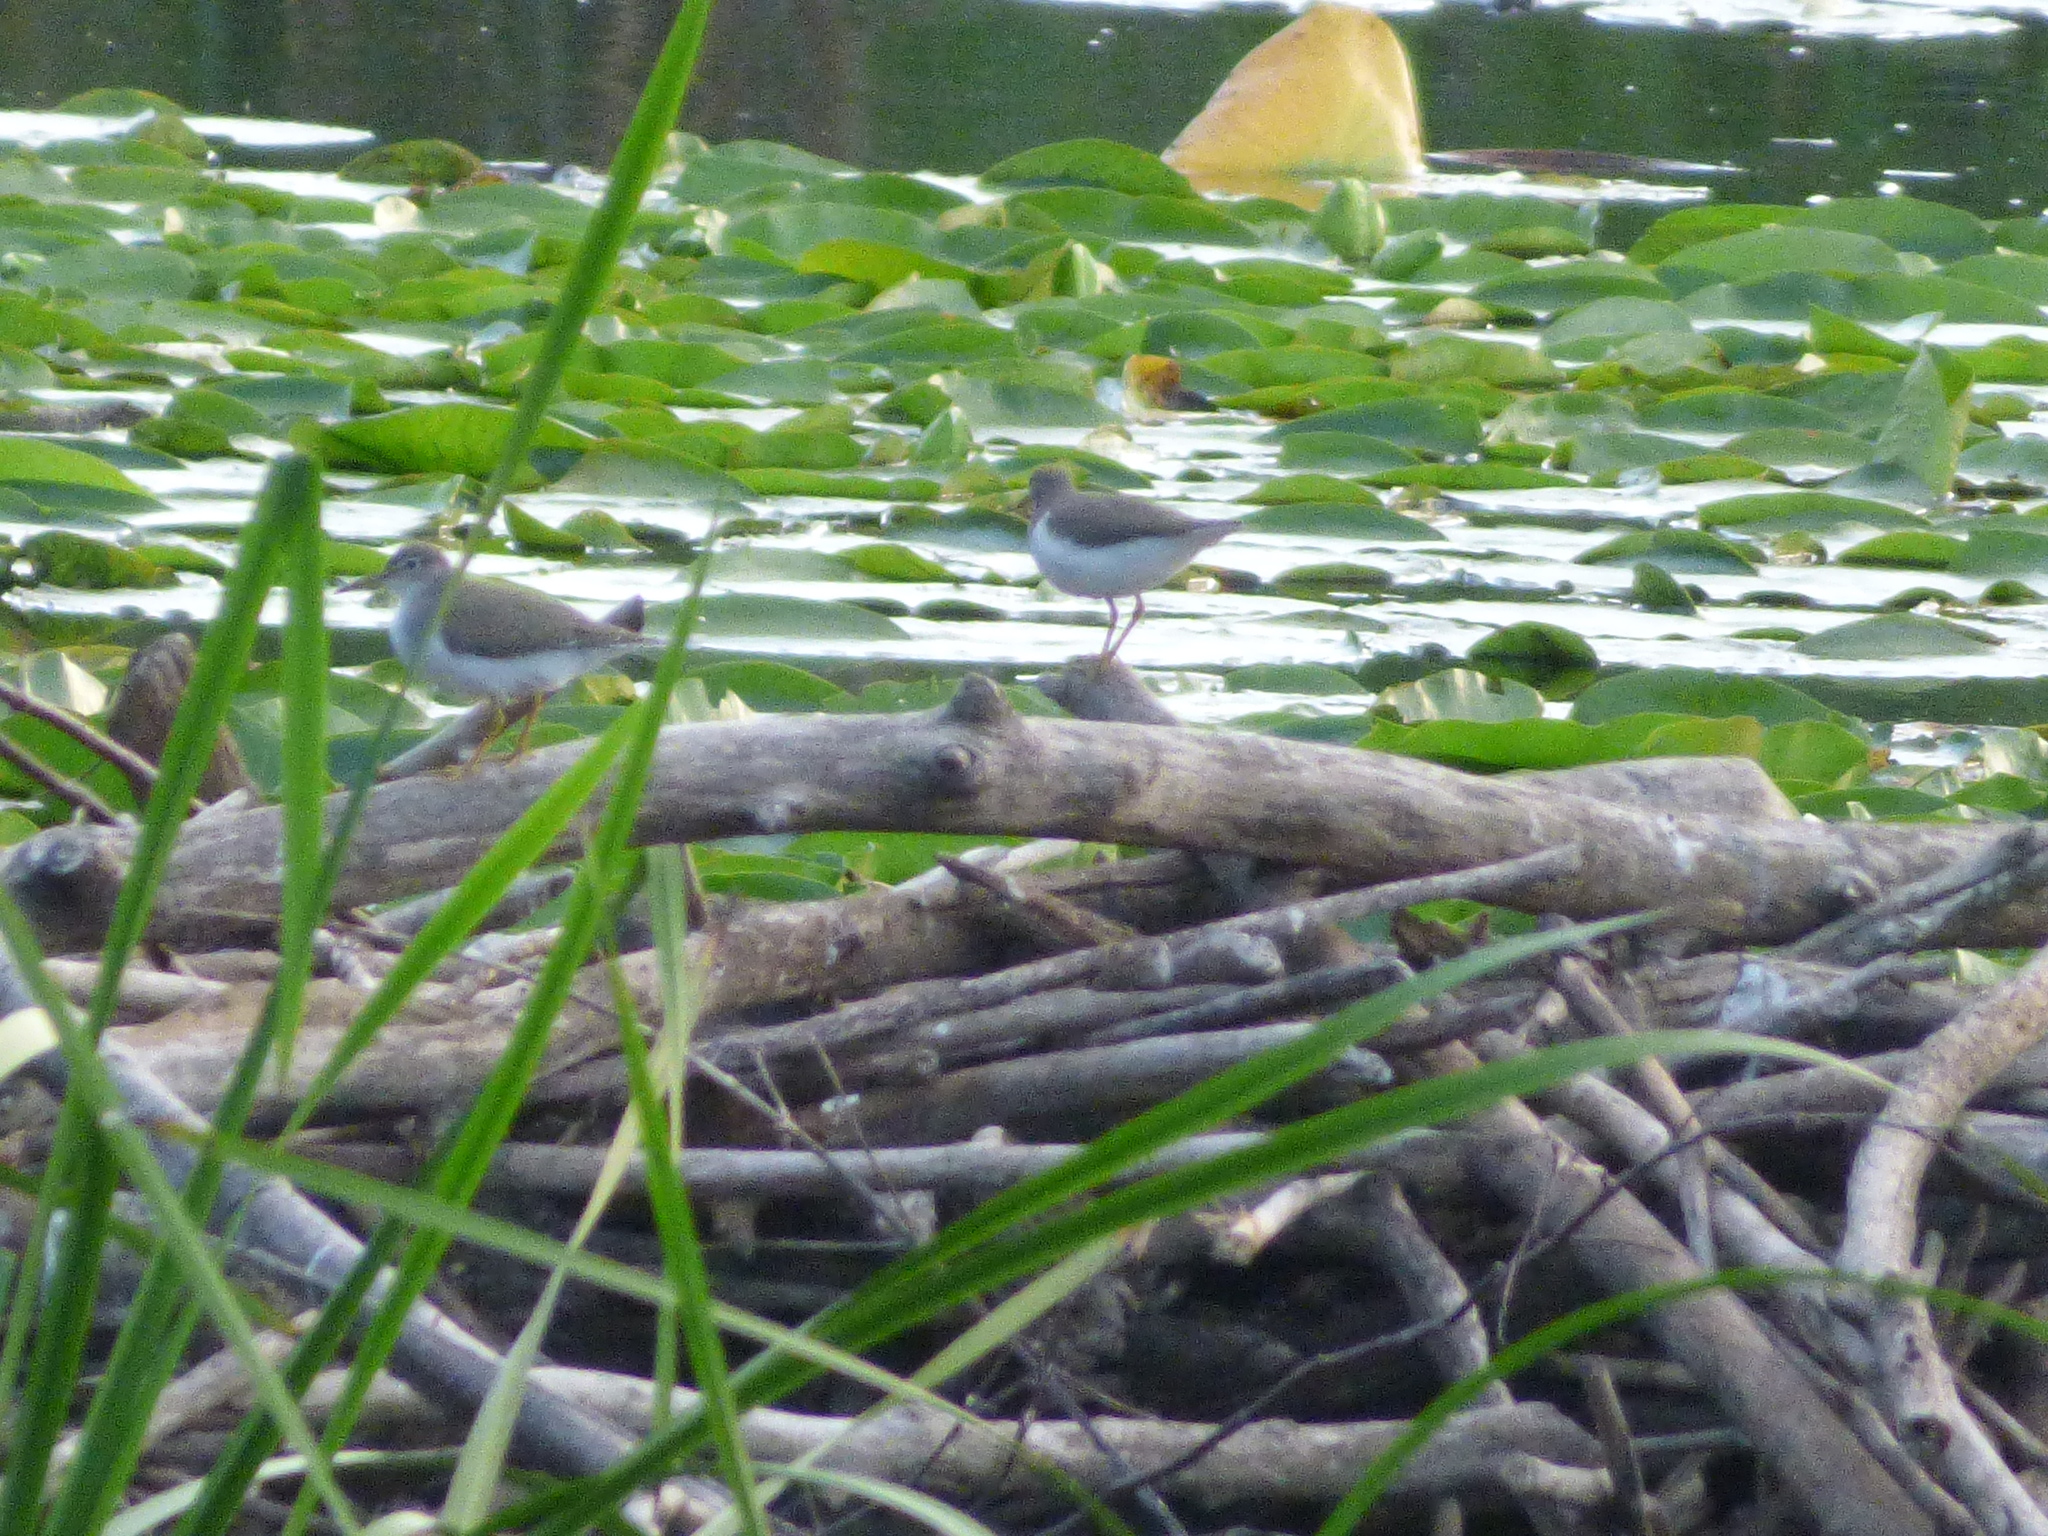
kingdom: Animalia
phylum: Chordata
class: Aves
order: Charadriiformes
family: Scolopacidae
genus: Actitis
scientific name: Actitis macularius
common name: Spotted sandpiper
